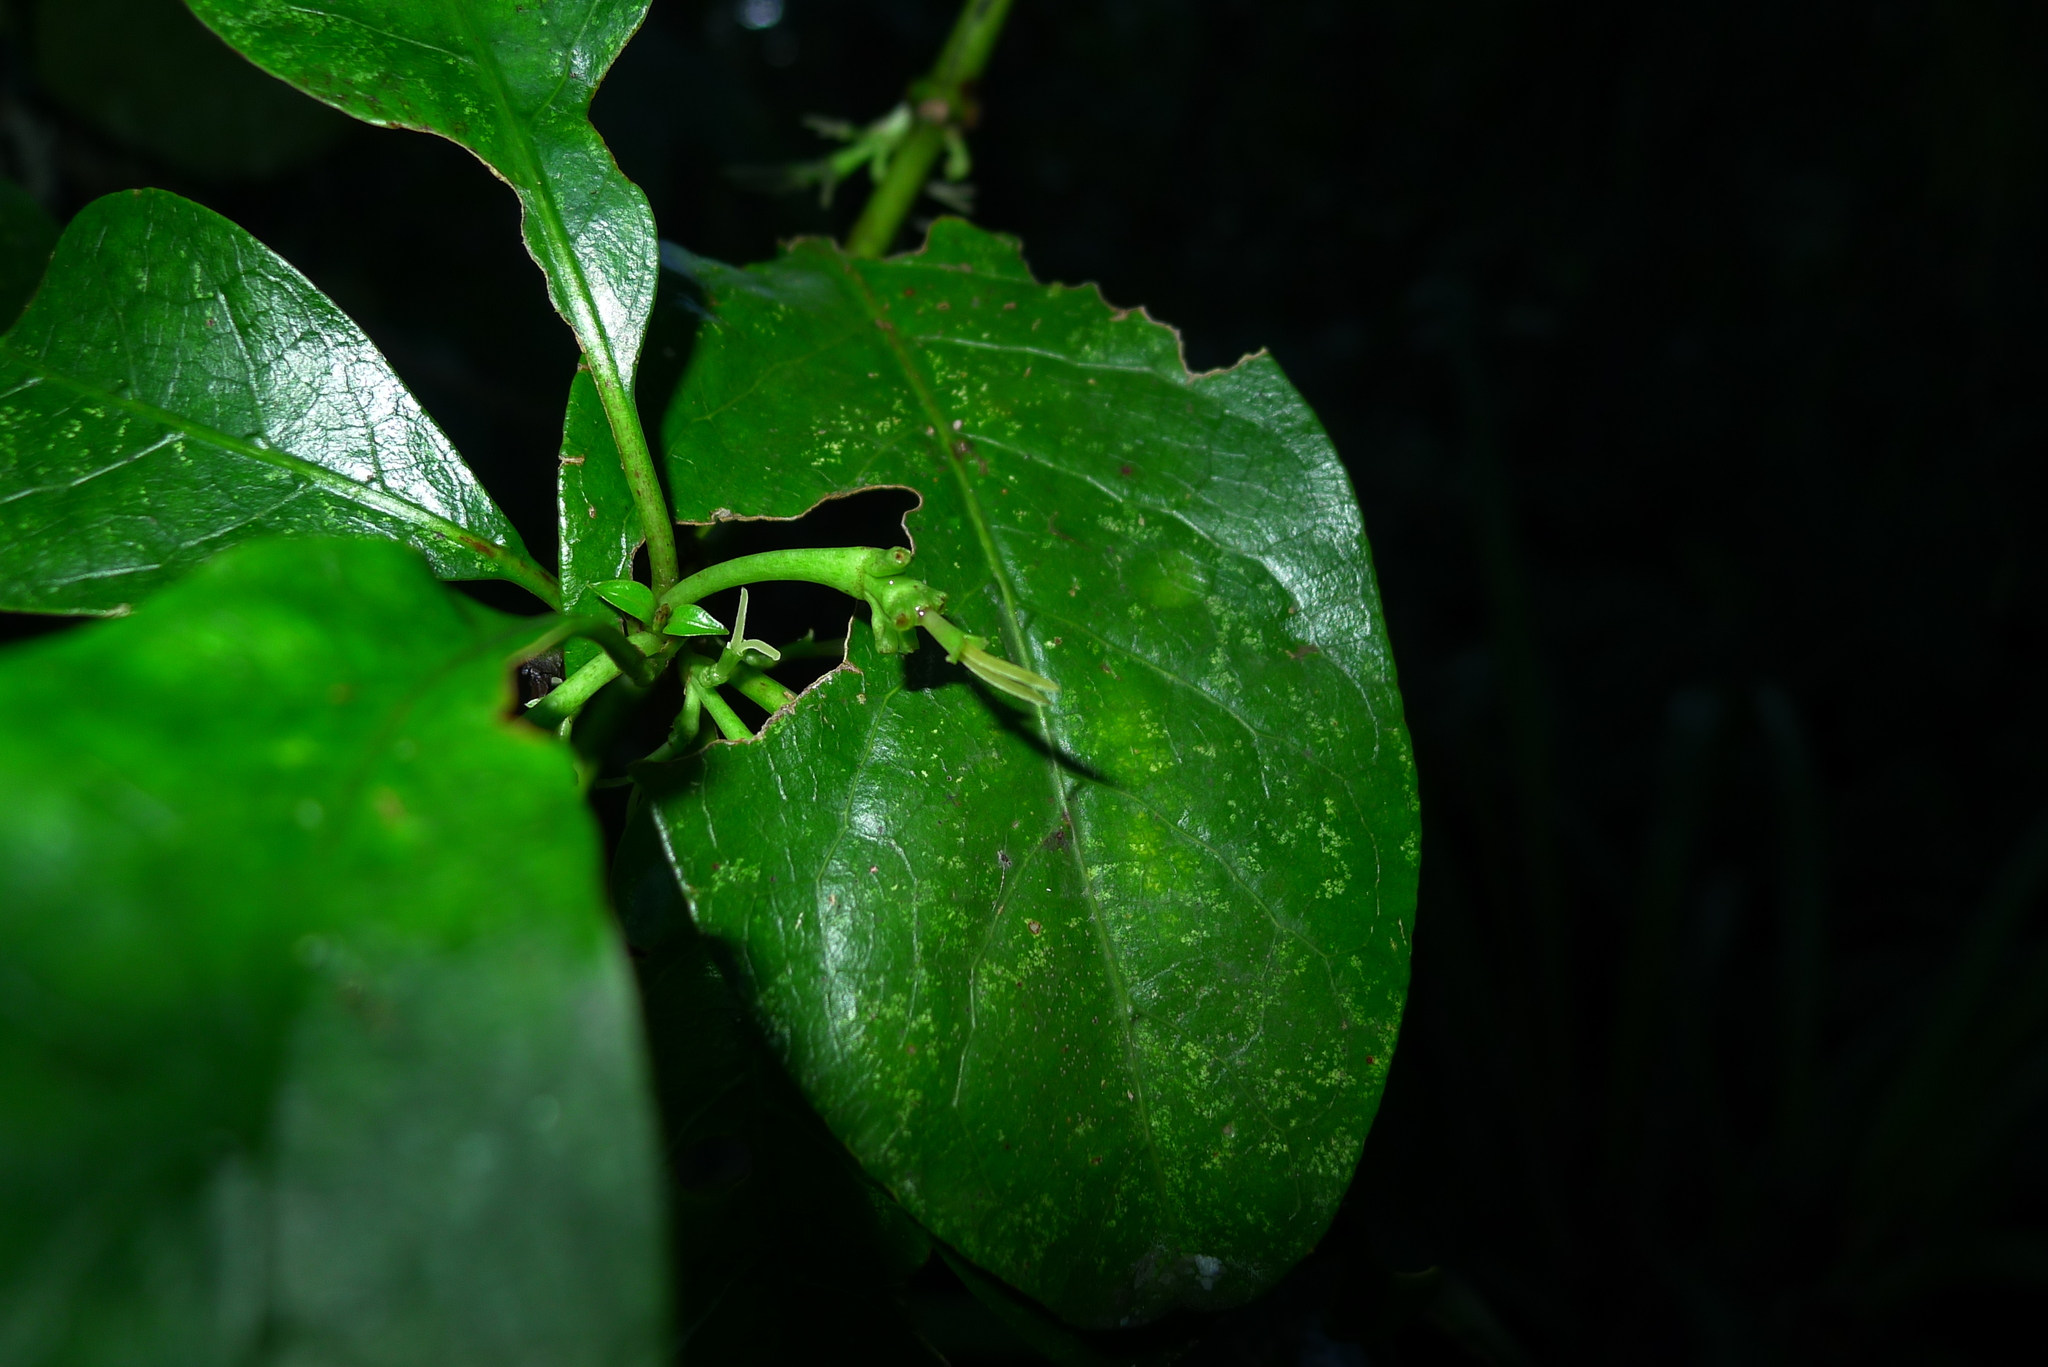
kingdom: Plantae
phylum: Tracheophyta
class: Magnoliopsida
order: Gentianales
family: Rubiaceae
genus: Coprosma
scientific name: Coprosma autumnalis
